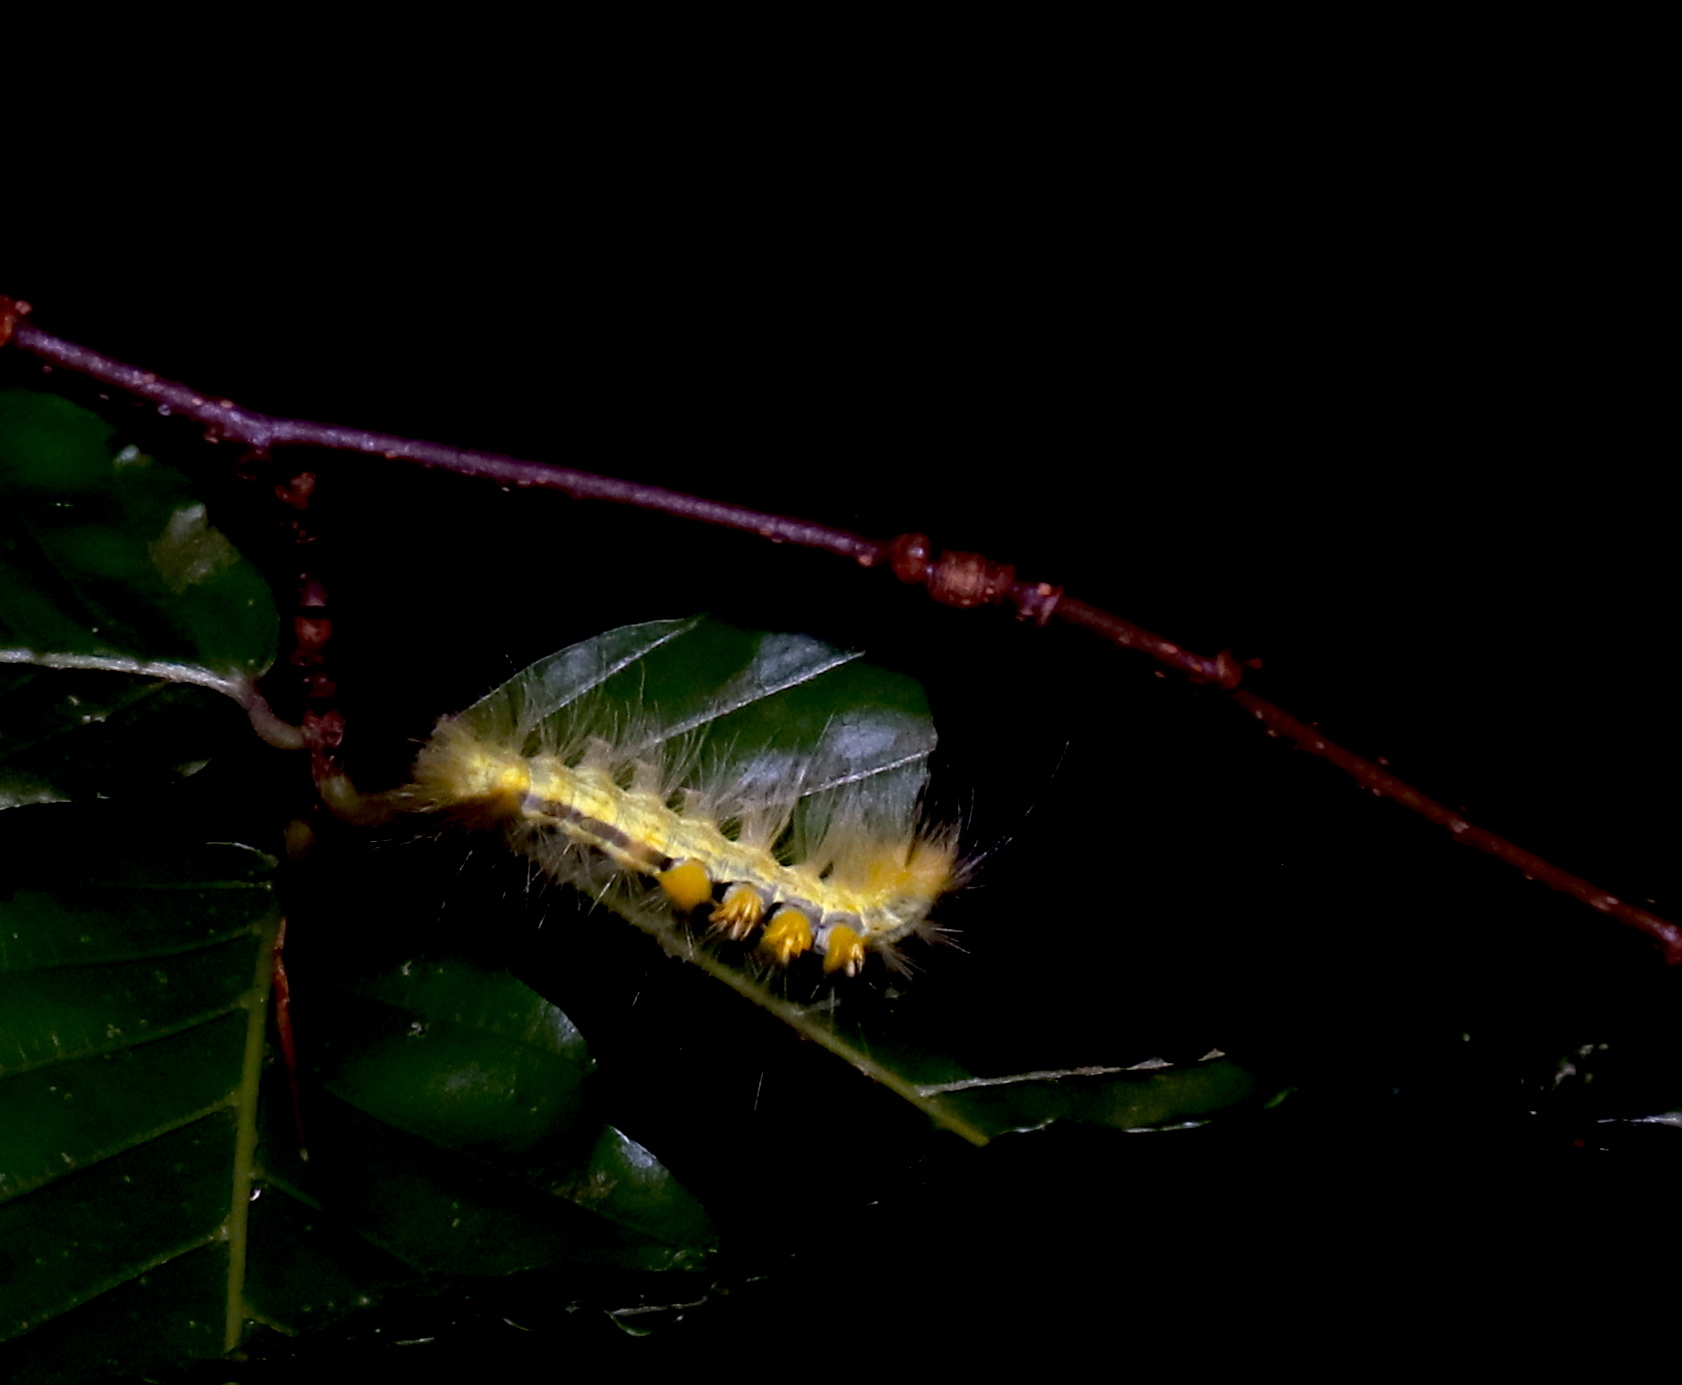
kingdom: Animalia
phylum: Arthropoda
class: Insecta
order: Lepidoptera
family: Erebidae
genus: Orgyia
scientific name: Orgyia definita
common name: Definite tussock moth
